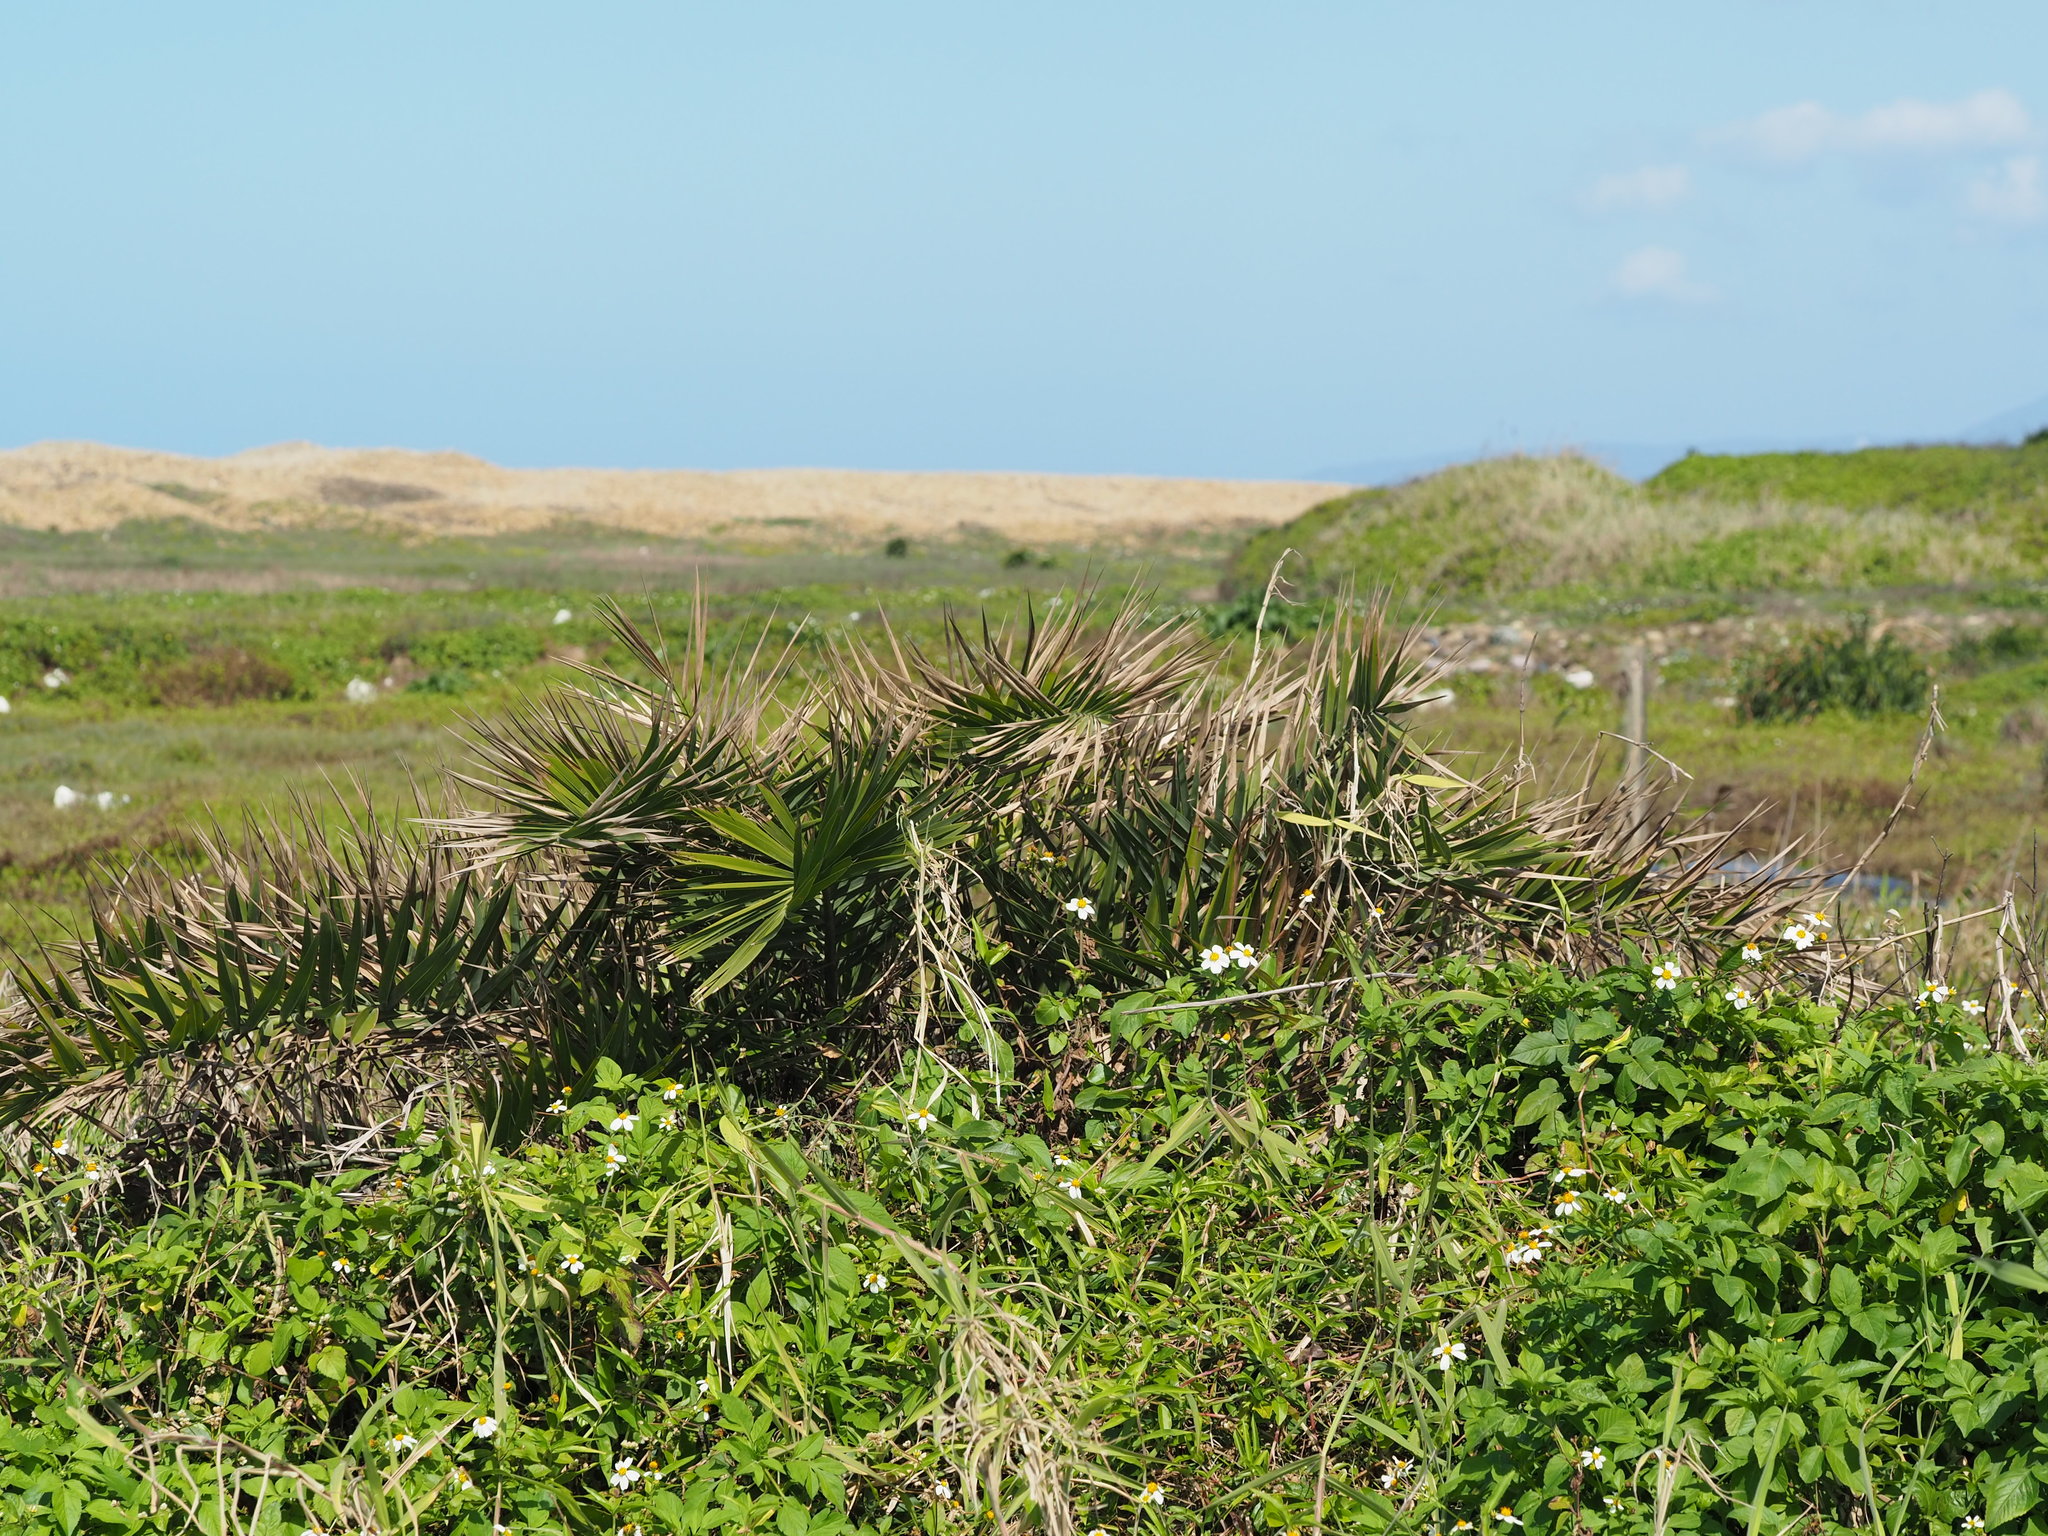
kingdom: Plantae
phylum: Tracheophyta
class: Liliopsida
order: Arecales
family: Arecaceae
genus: Phoenix
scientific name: Phoenix loureiroi
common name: Loureiro's palm
